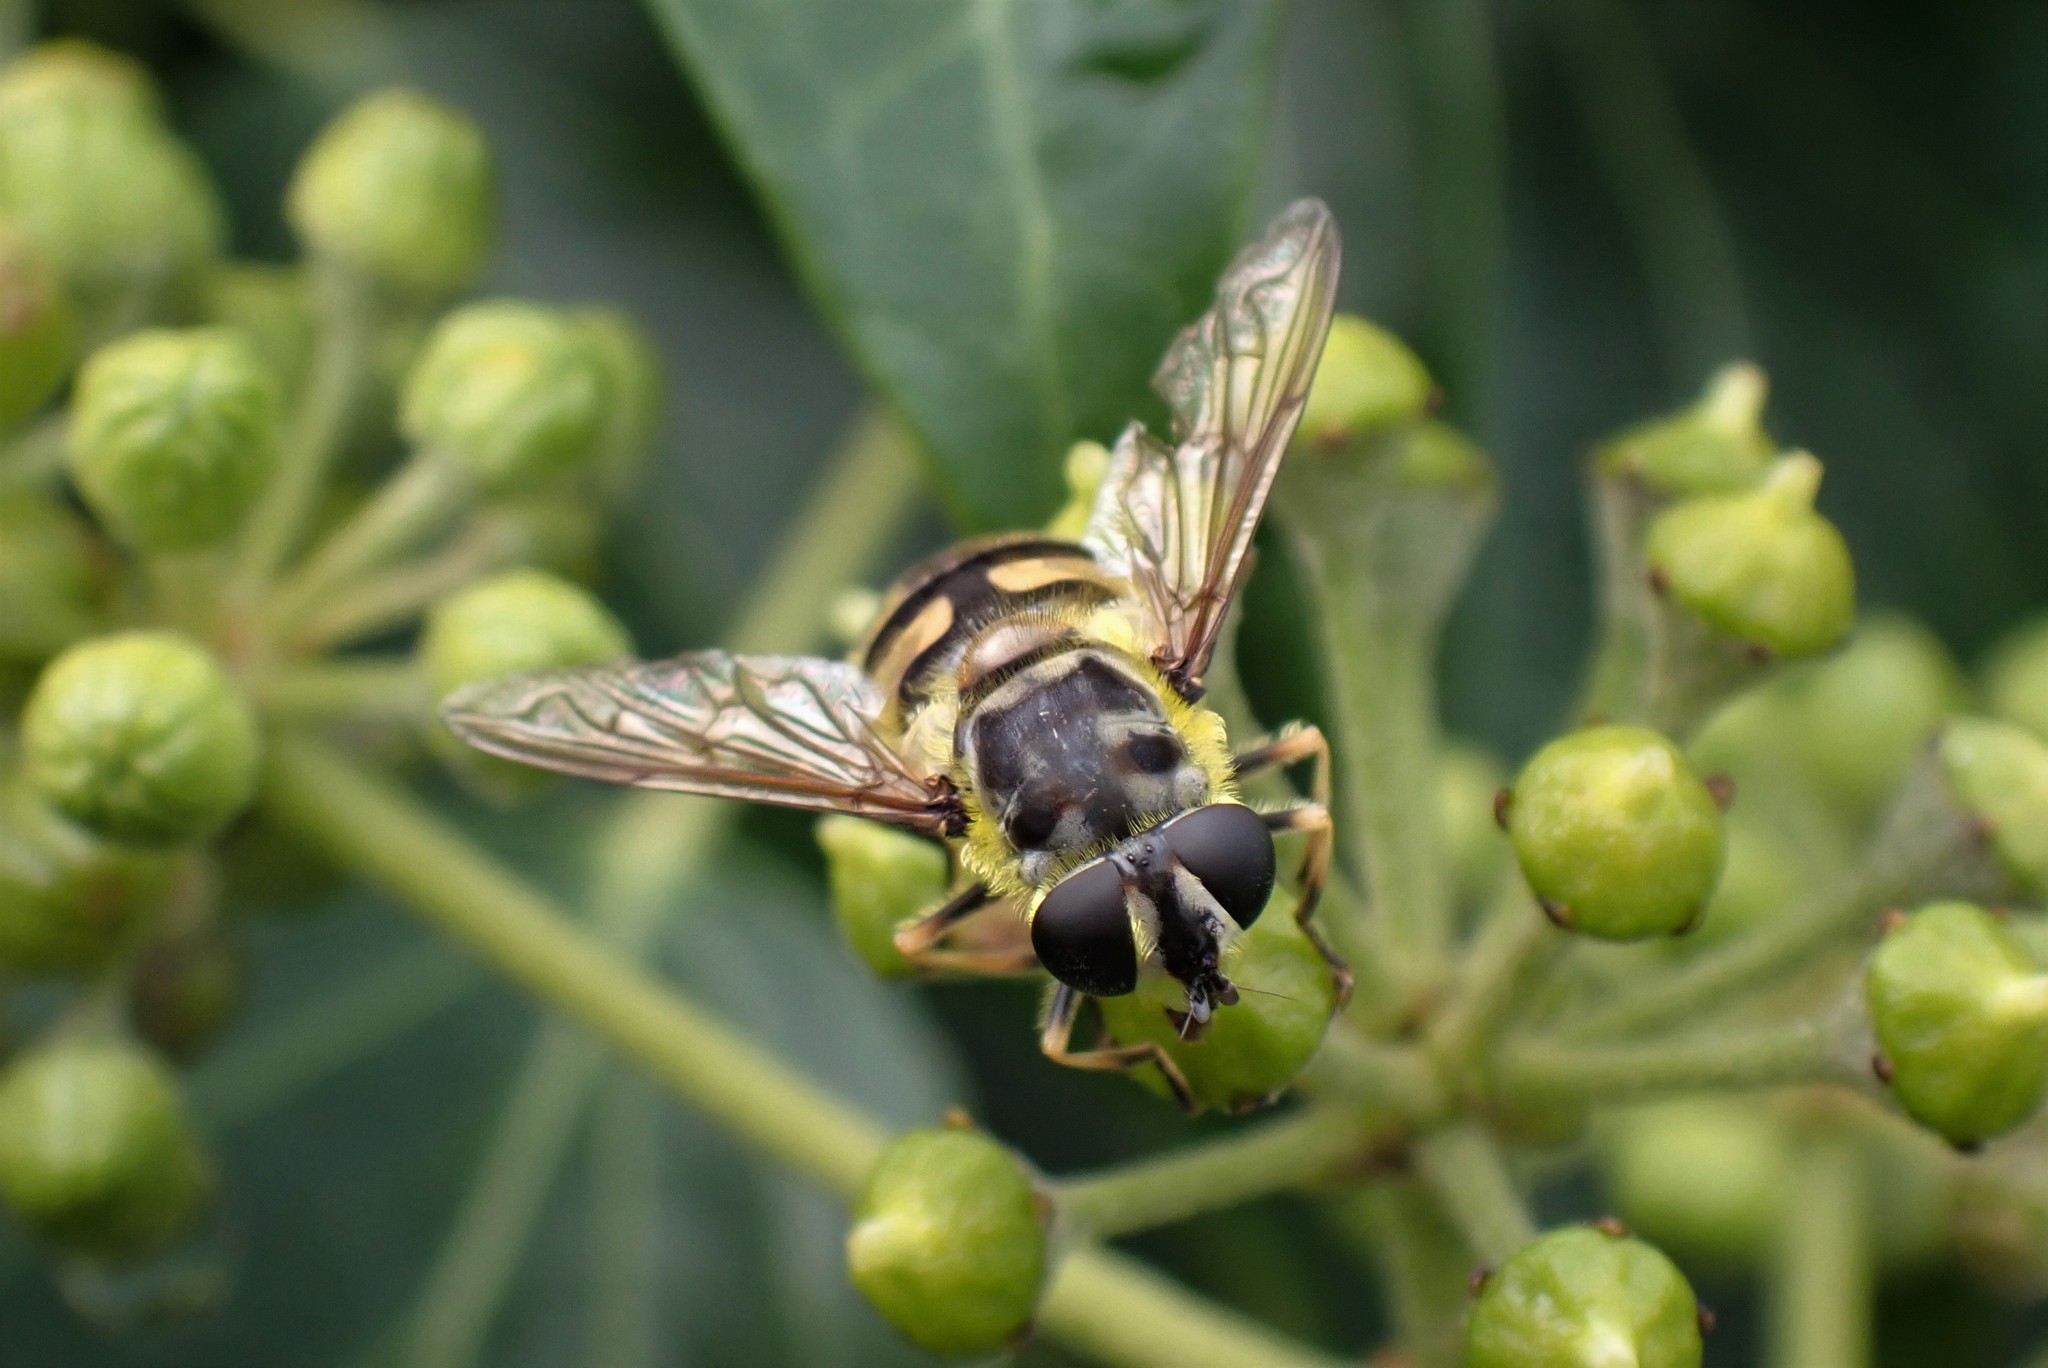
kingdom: Animalia
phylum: Arthropoda
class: Insecta
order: Diptera
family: Syrphidae
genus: Myathropa
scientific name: Myathropa florea
